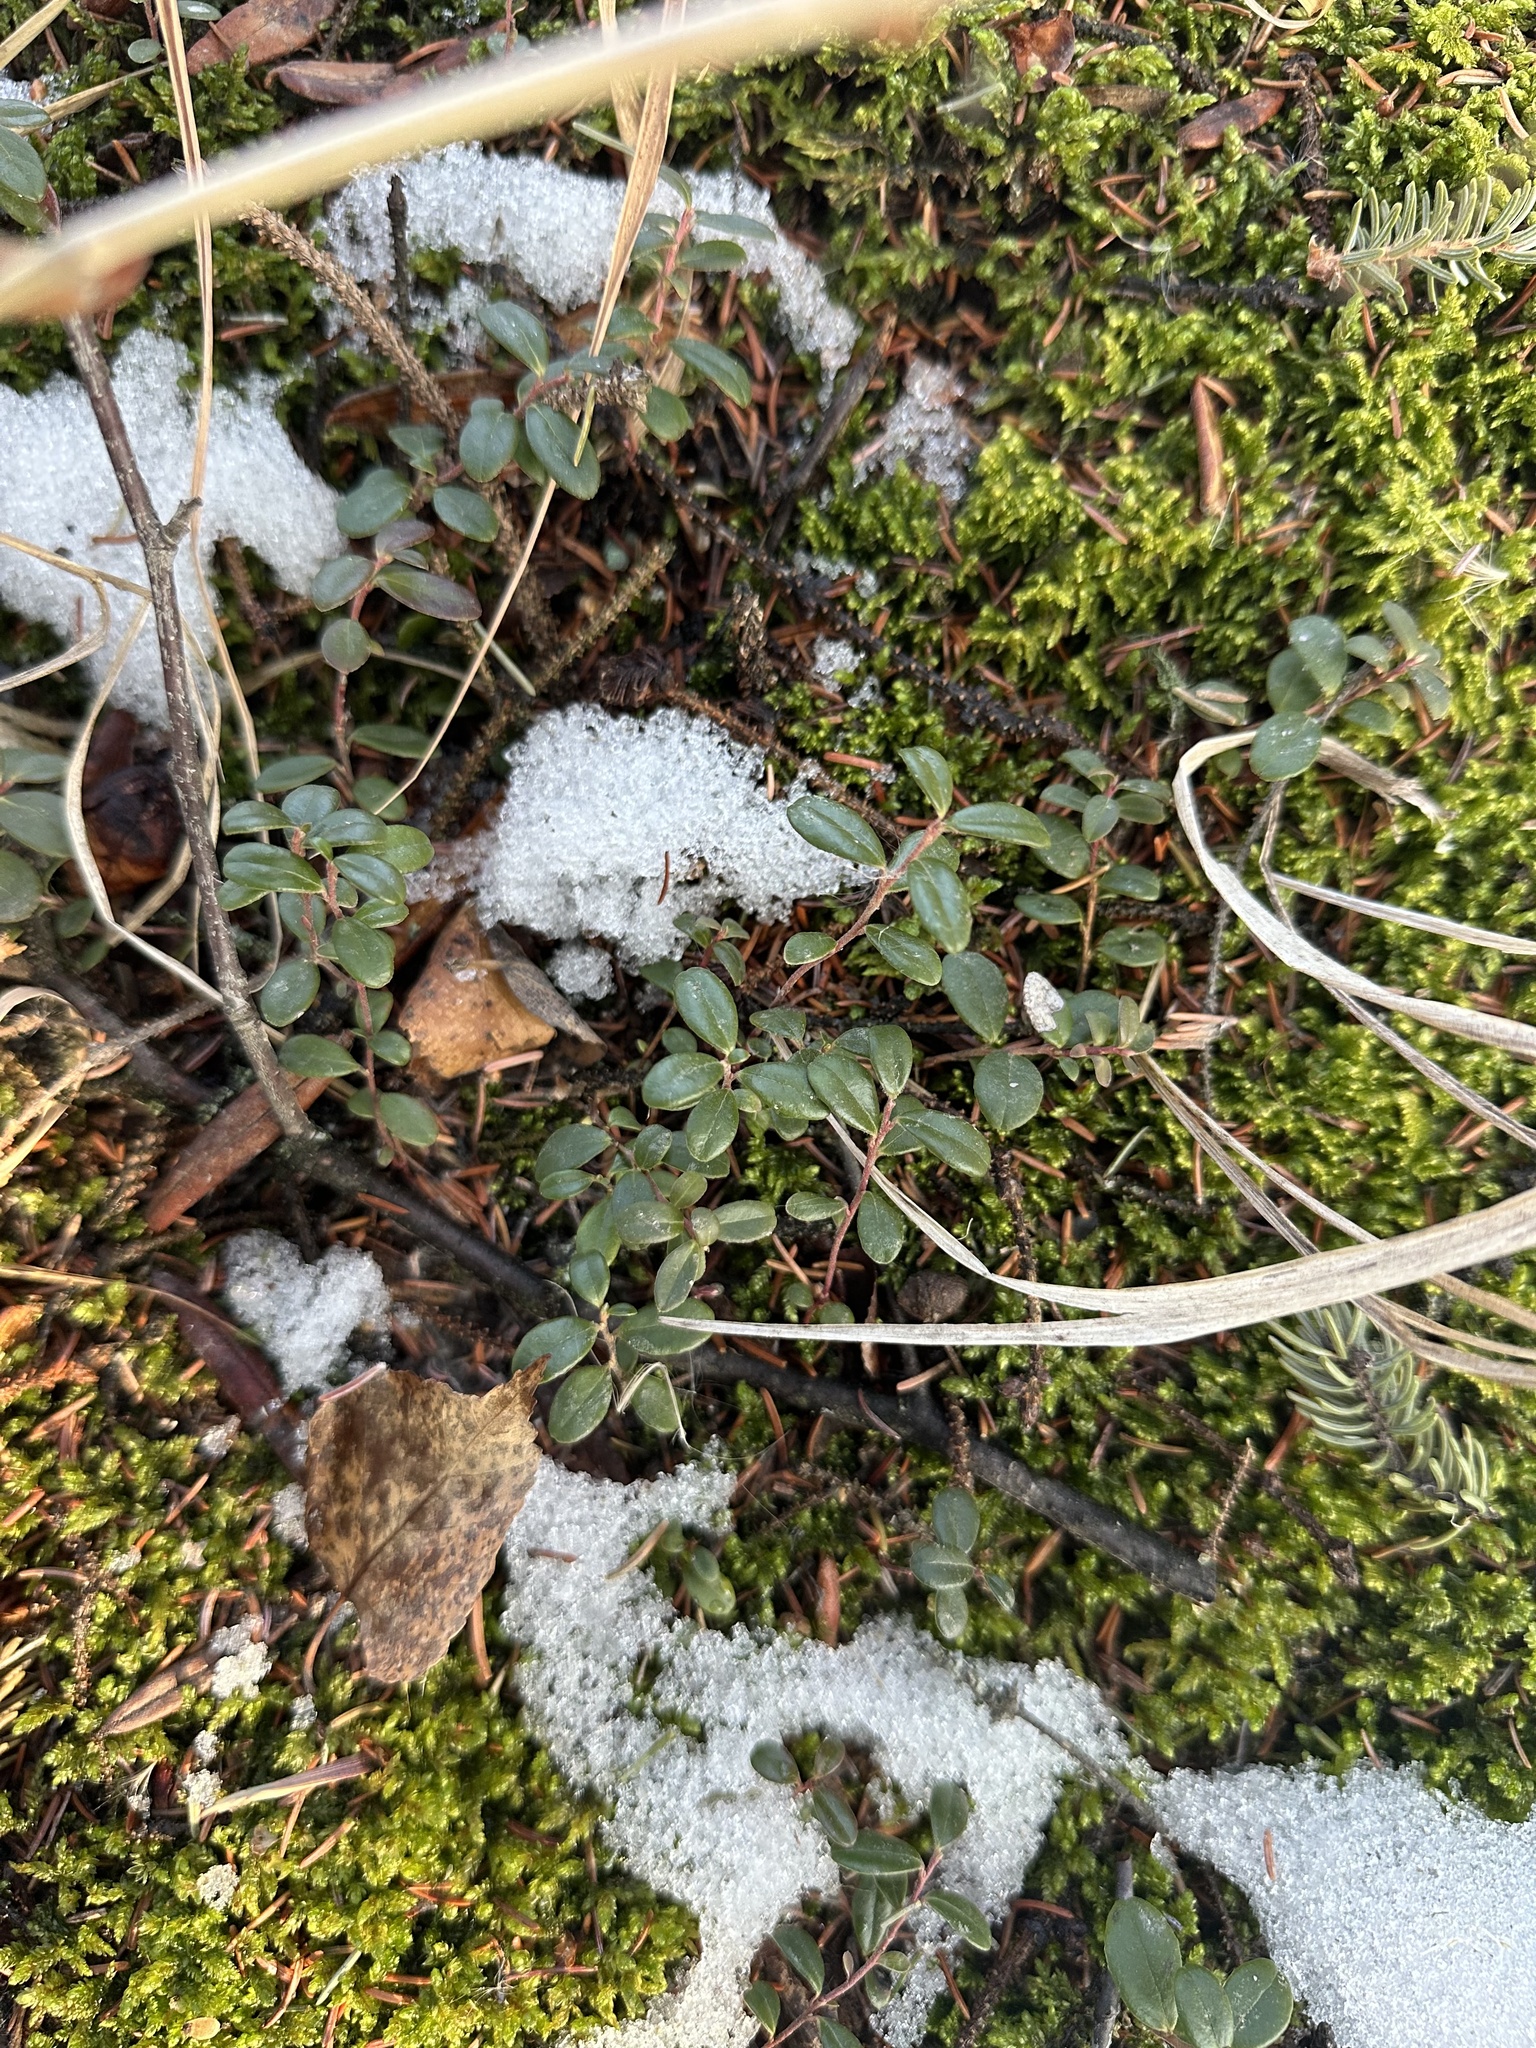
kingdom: Plantae
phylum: Tracheophyta
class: Magnoliopsida
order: Ericales
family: Ericaceae
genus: Vaccinium
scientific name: Vaccinium vitis-idaea
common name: Cowberry
